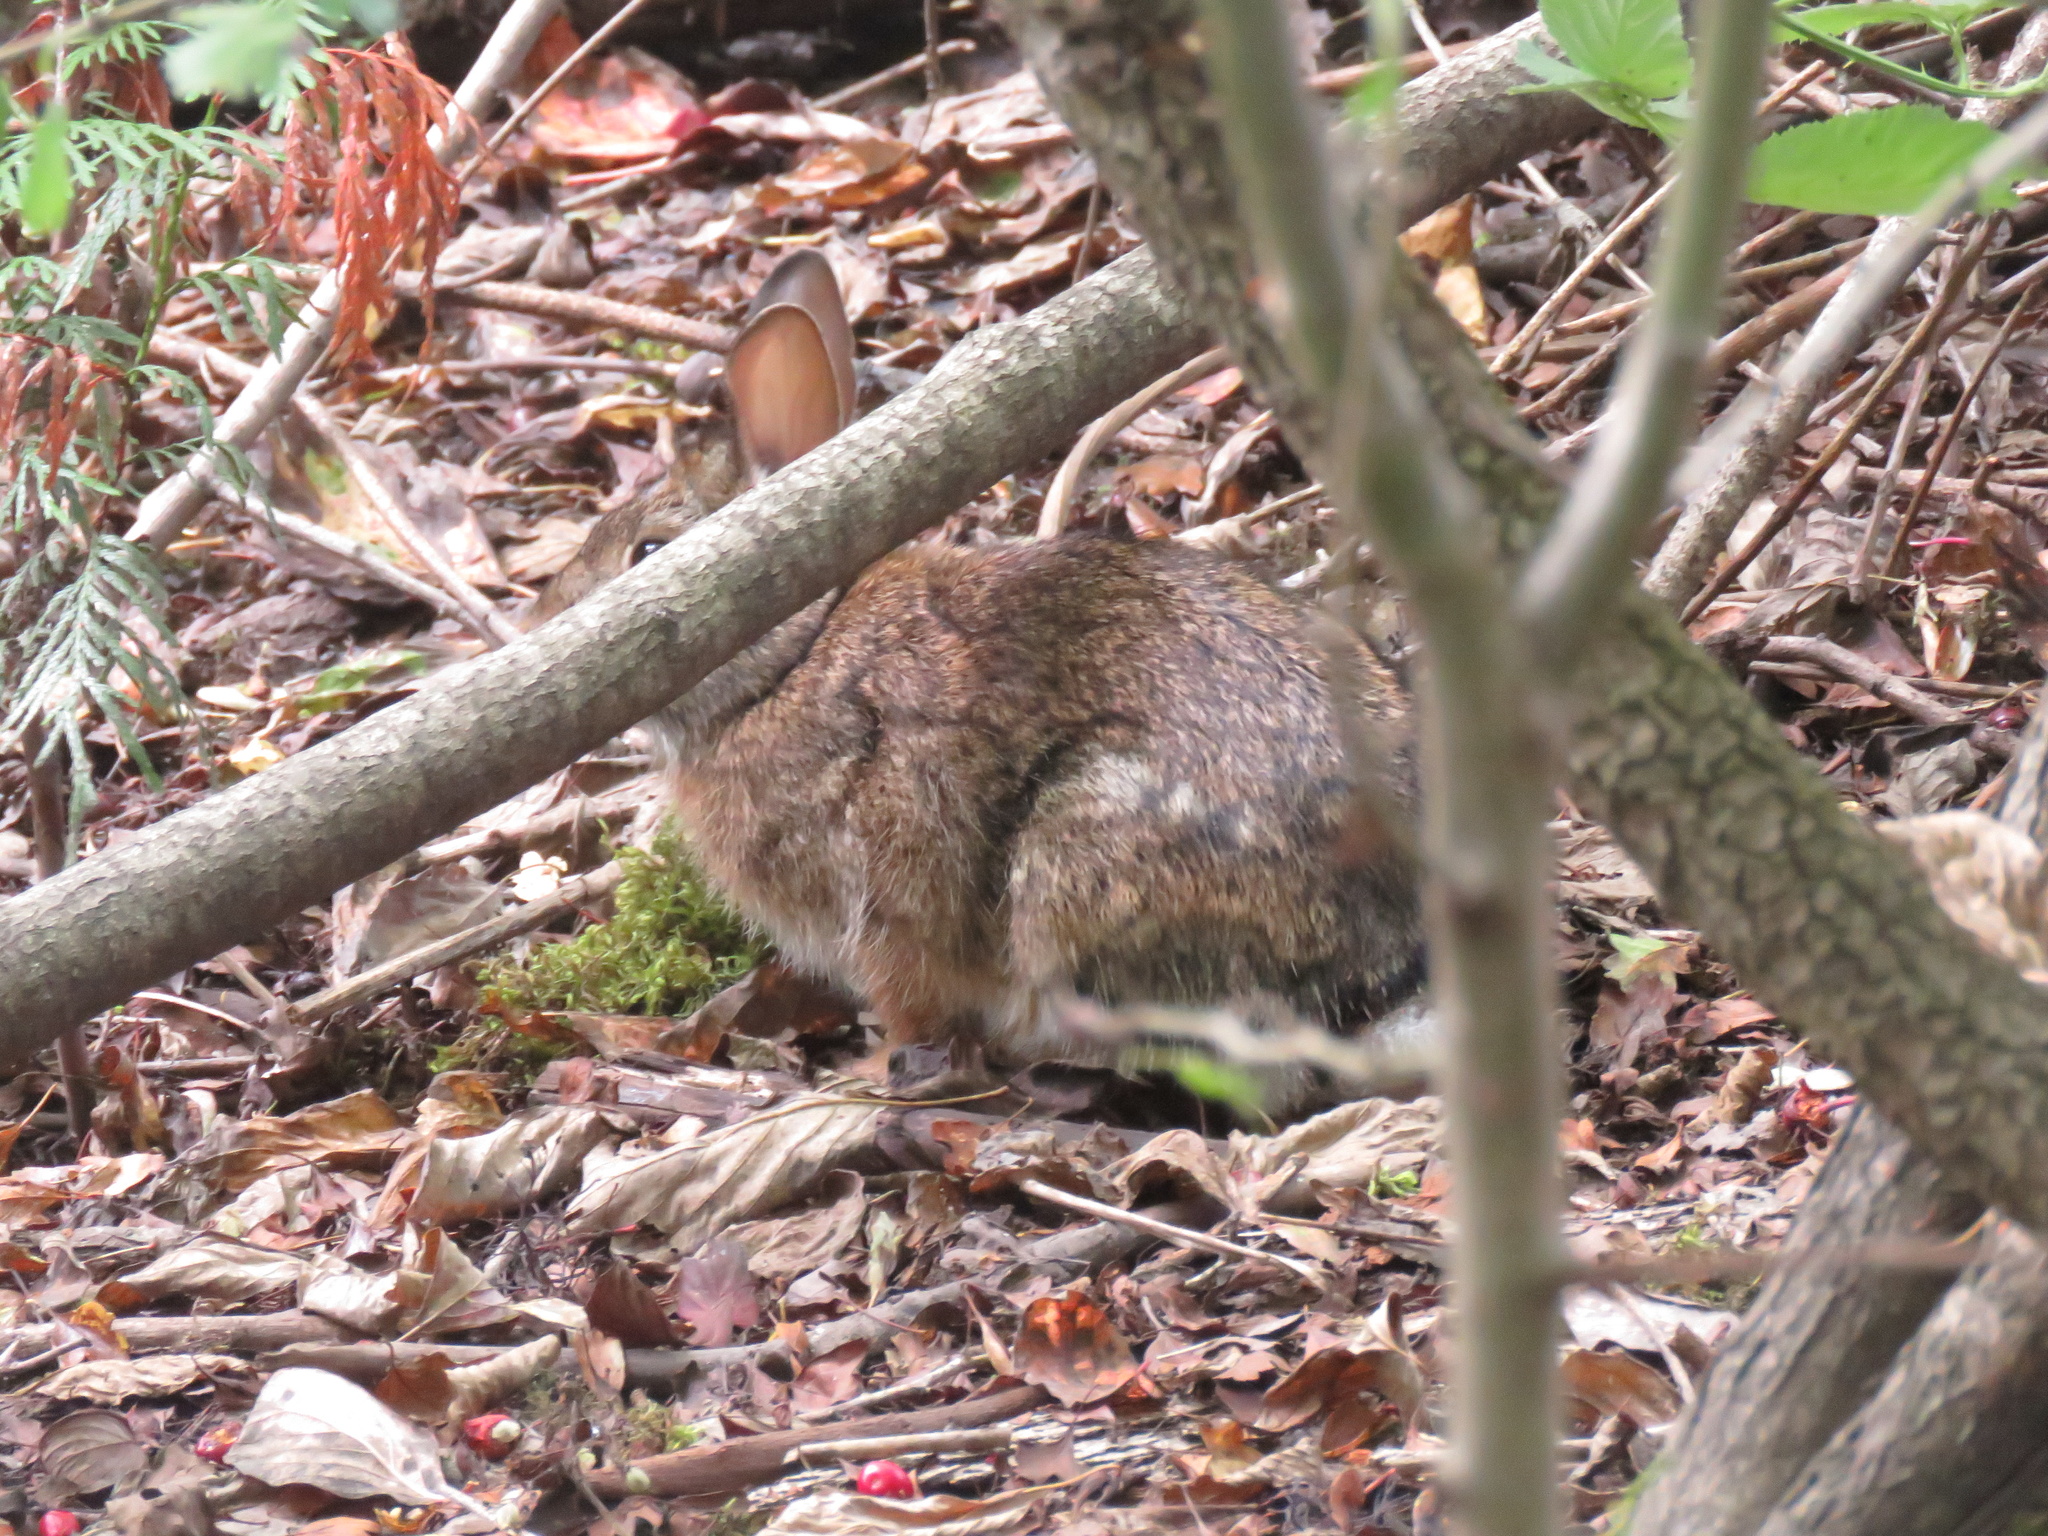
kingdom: Animalia
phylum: Chordata
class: Mammalia
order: Lagomorpha
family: Leporidae
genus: Sylvilagus
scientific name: Sylvilagus floridanus
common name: Eastern cottontail
